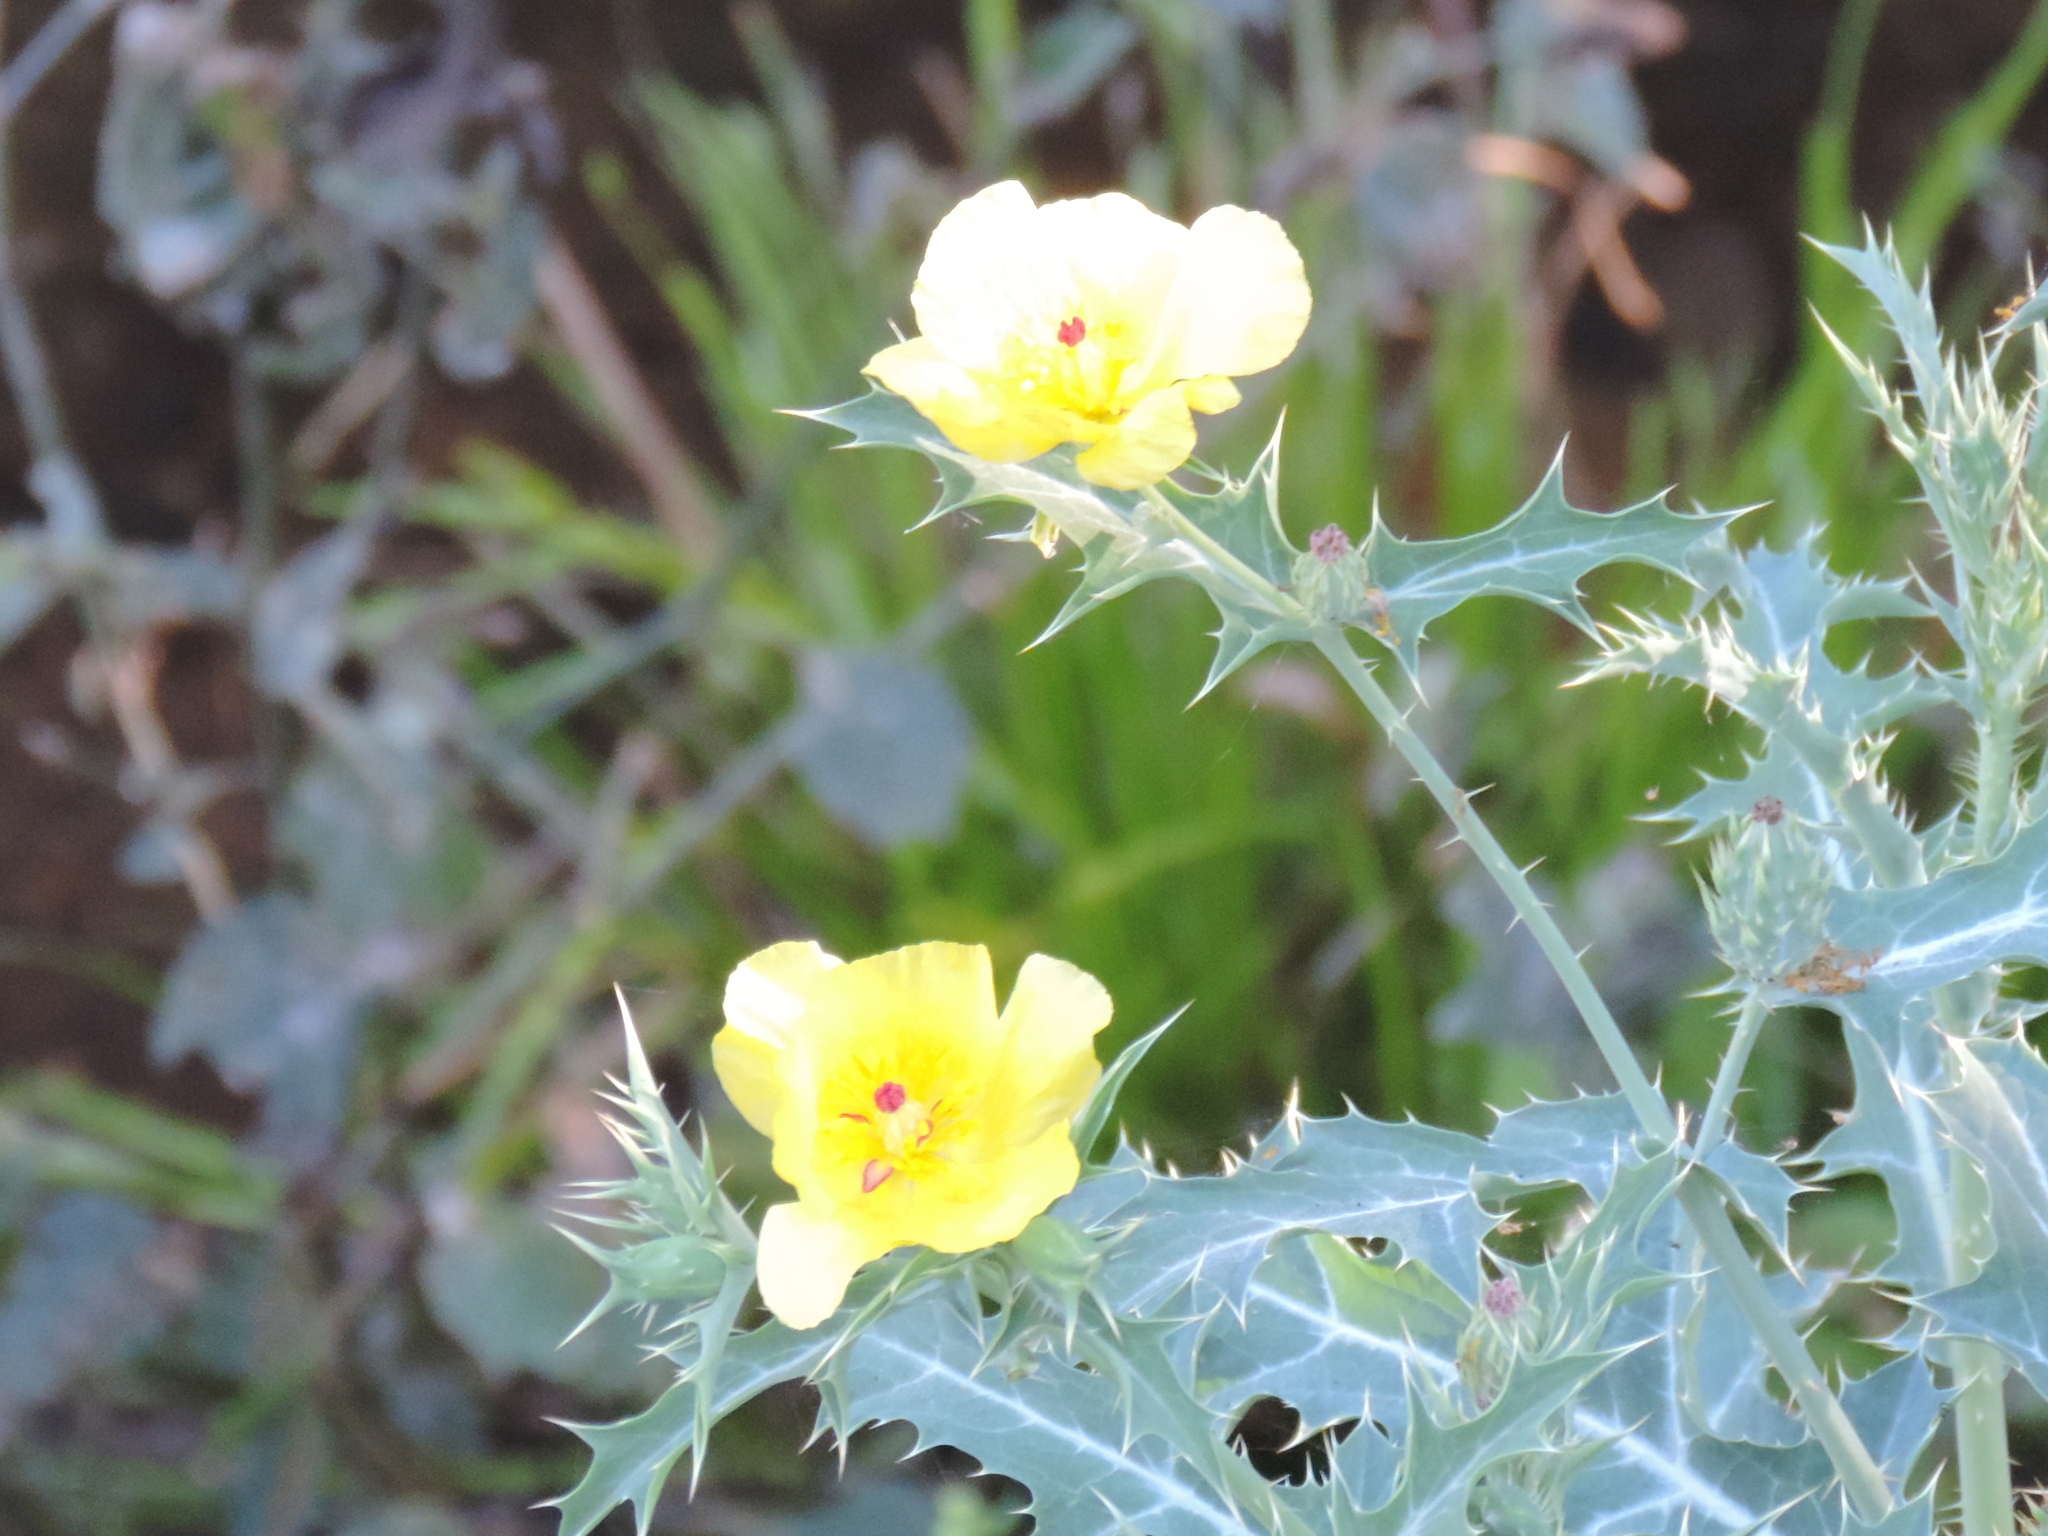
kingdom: Plantae
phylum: Tracheophyta
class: Magnoliopsida
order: Ranunculales
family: Papaveraceae
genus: Argemone
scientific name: Argemone ochroleuca
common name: White-flower mexican-poppy
